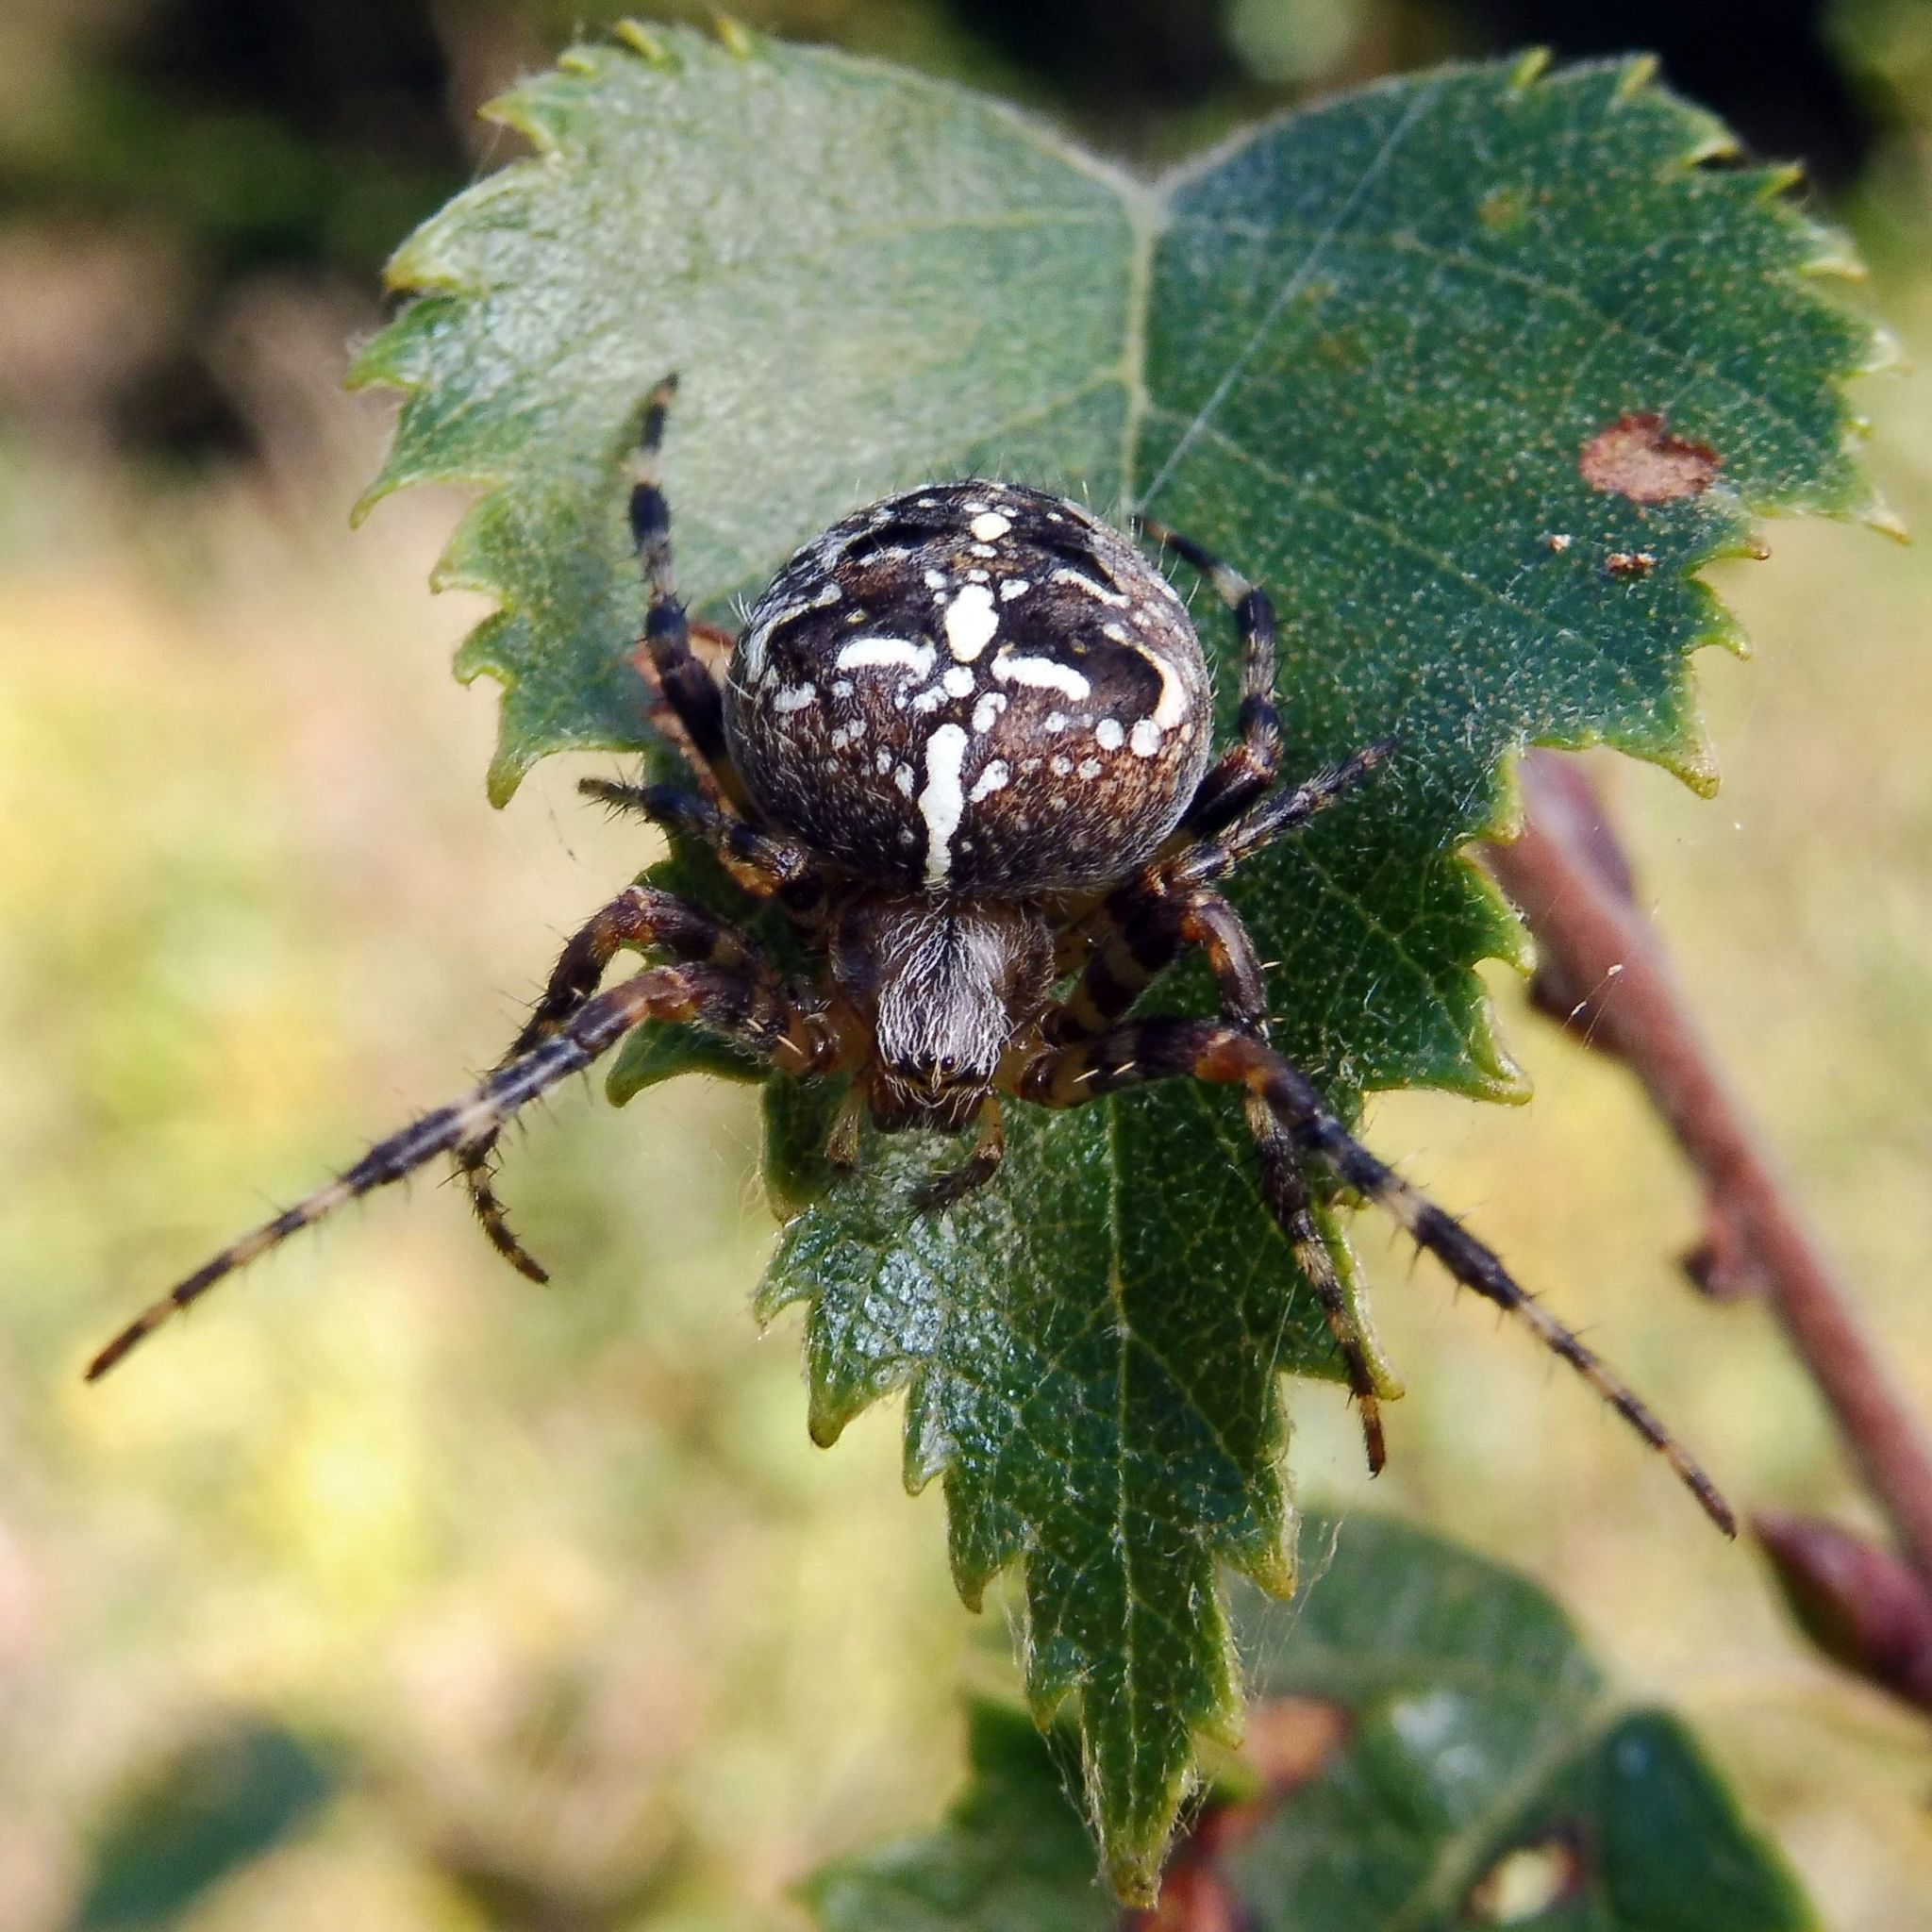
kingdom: Animalia
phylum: Arthropoda
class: Arachnida
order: Araneae
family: Araneidae
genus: Araneus
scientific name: Araneus diadematus
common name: Cross orbweaver
